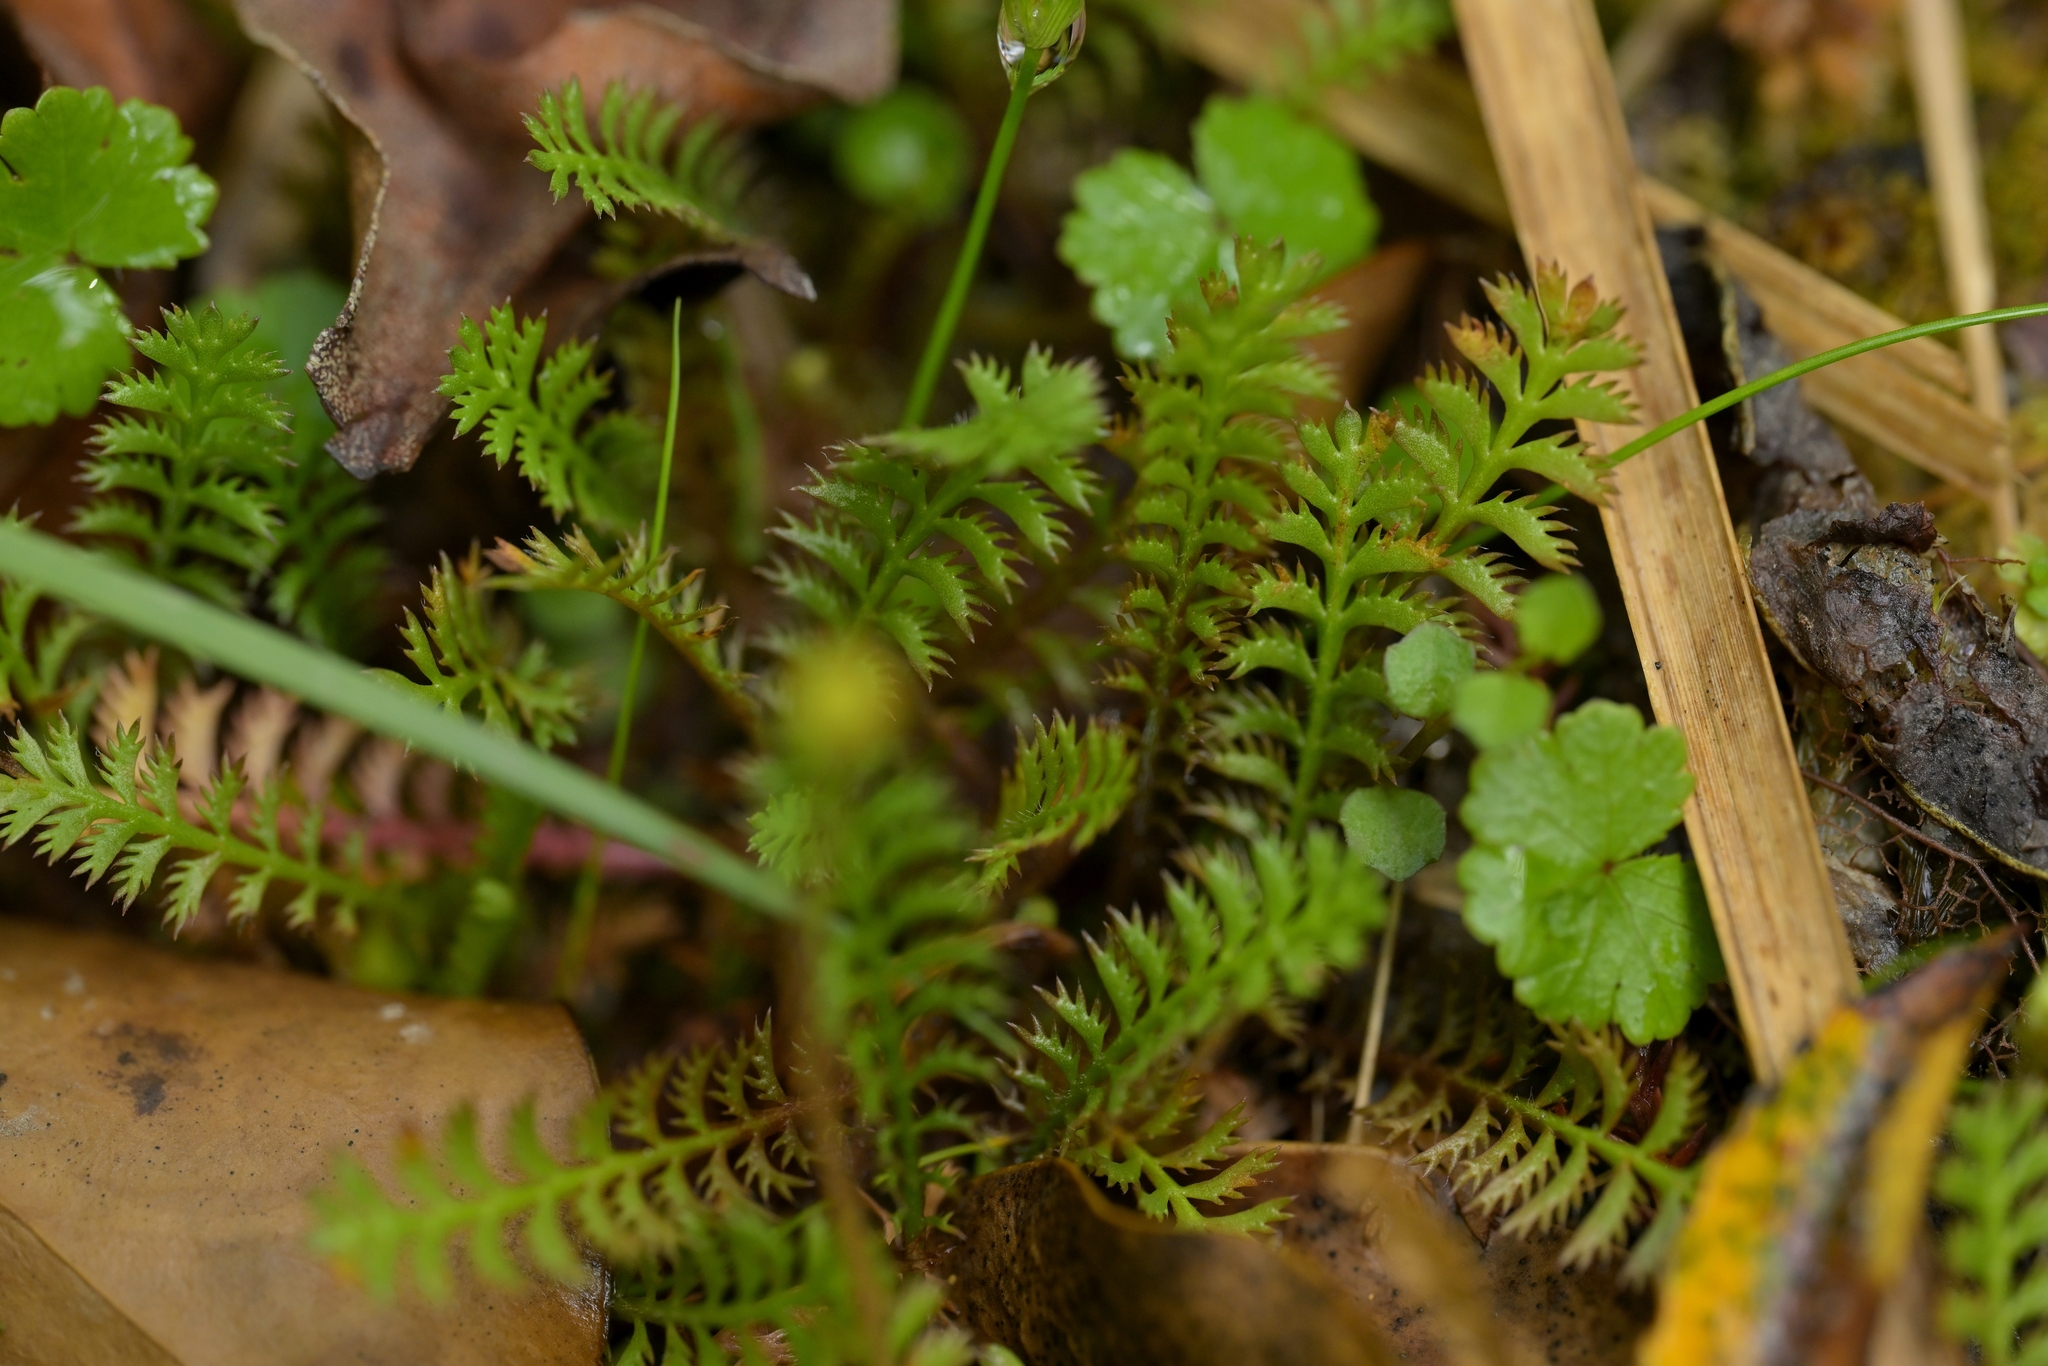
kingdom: Plantae
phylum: Tracheophyta
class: Magnoliopsida
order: Asterales
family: Asteraceae
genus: Leptinella
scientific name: Leptinella squalida
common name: New zealand brass-buttons
